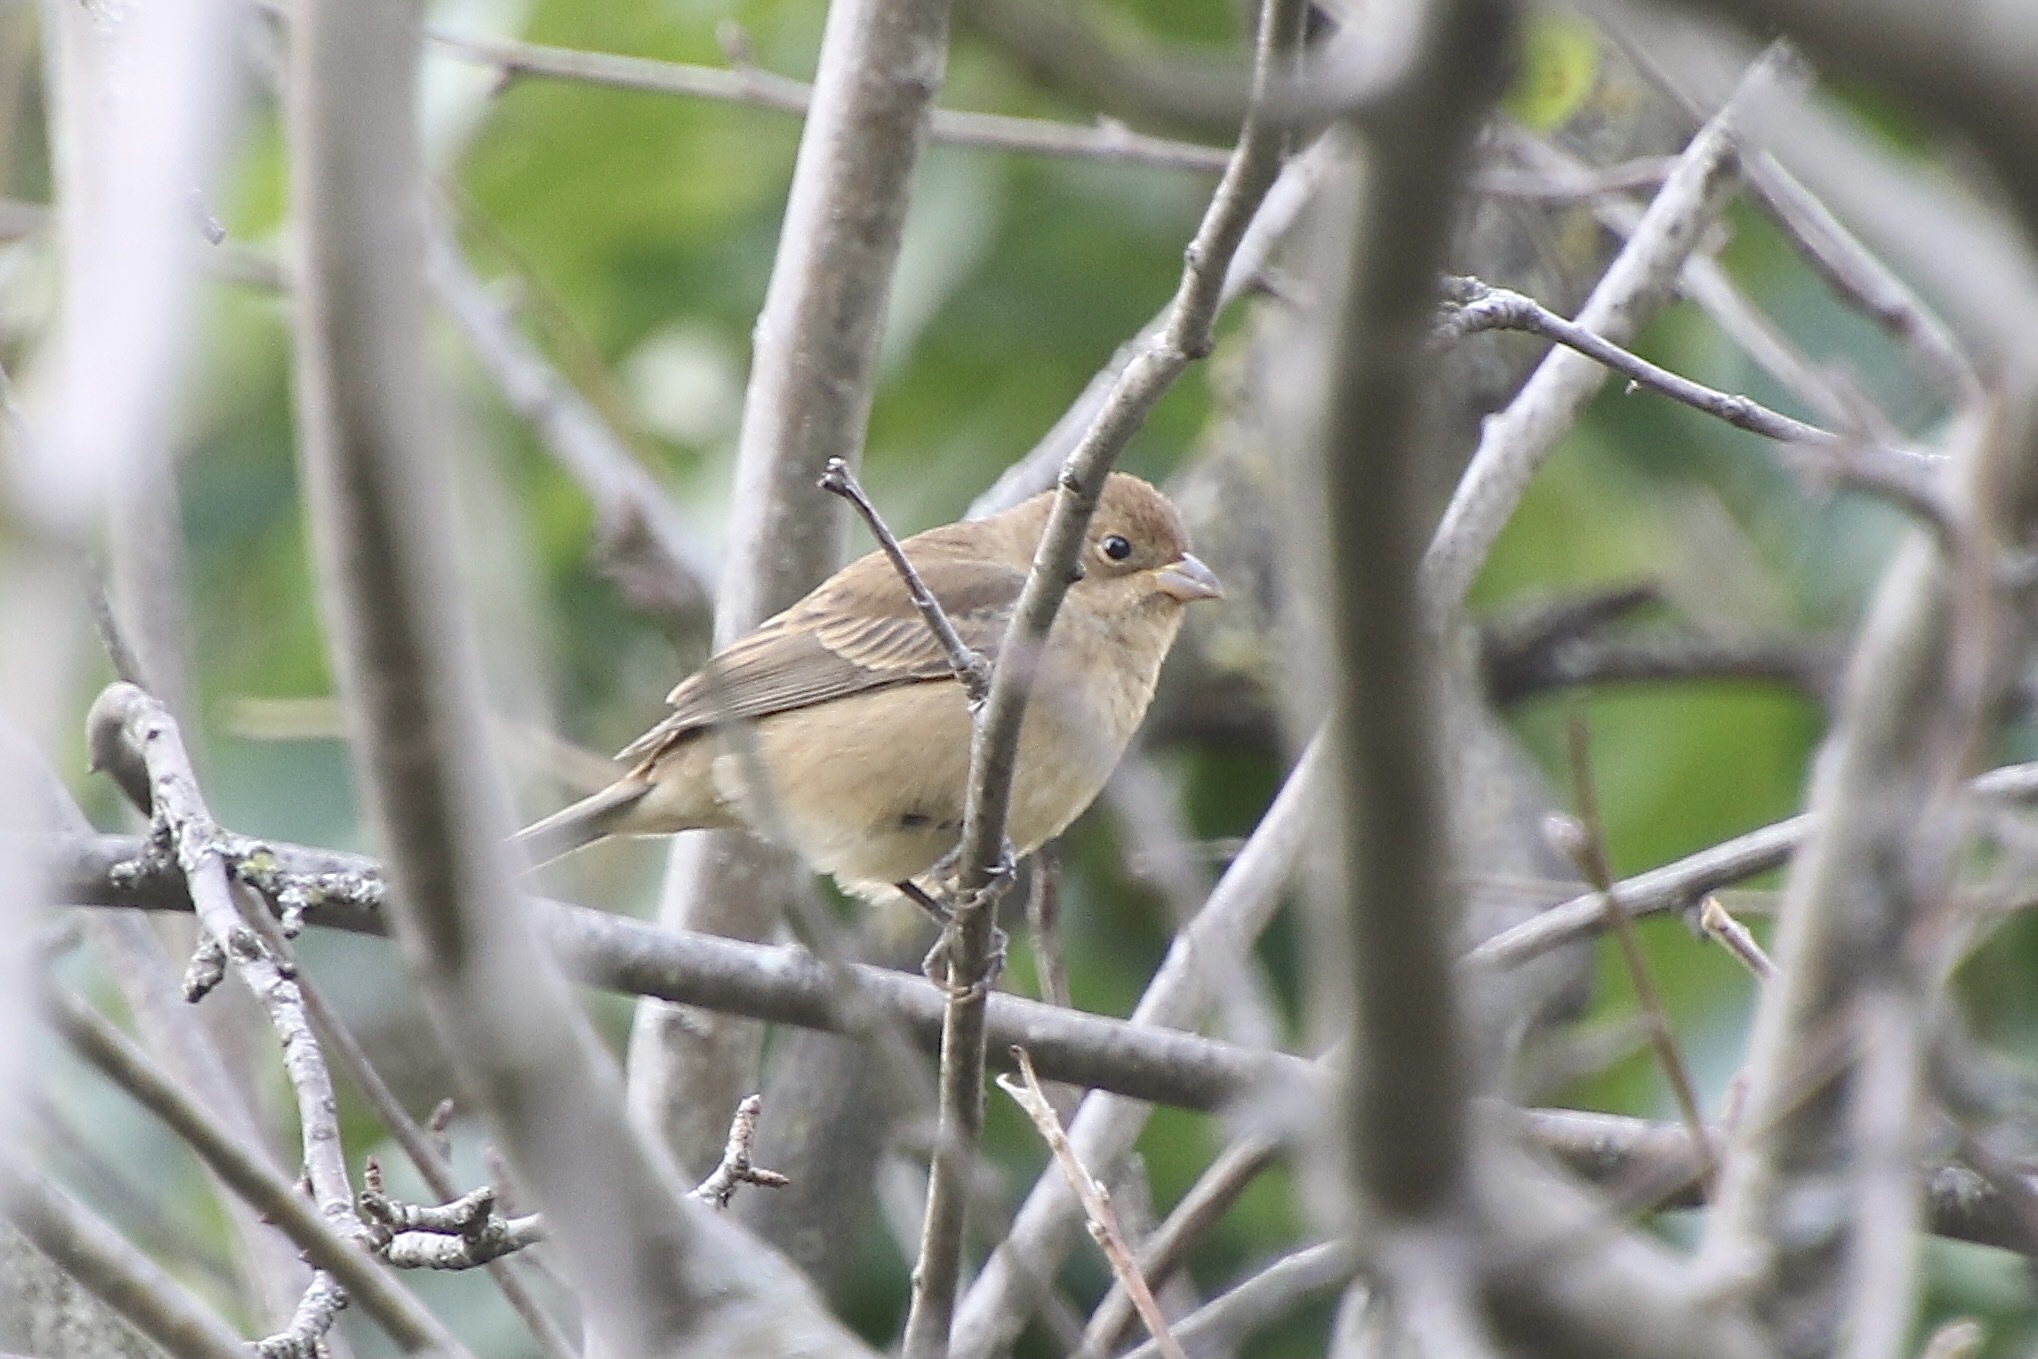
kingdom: Animalia
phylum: Chordata
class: Aves
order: Passeriformes
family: Cardinalidae
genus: Passerina
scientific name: Passerina cyanea
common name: Indigo bunting
